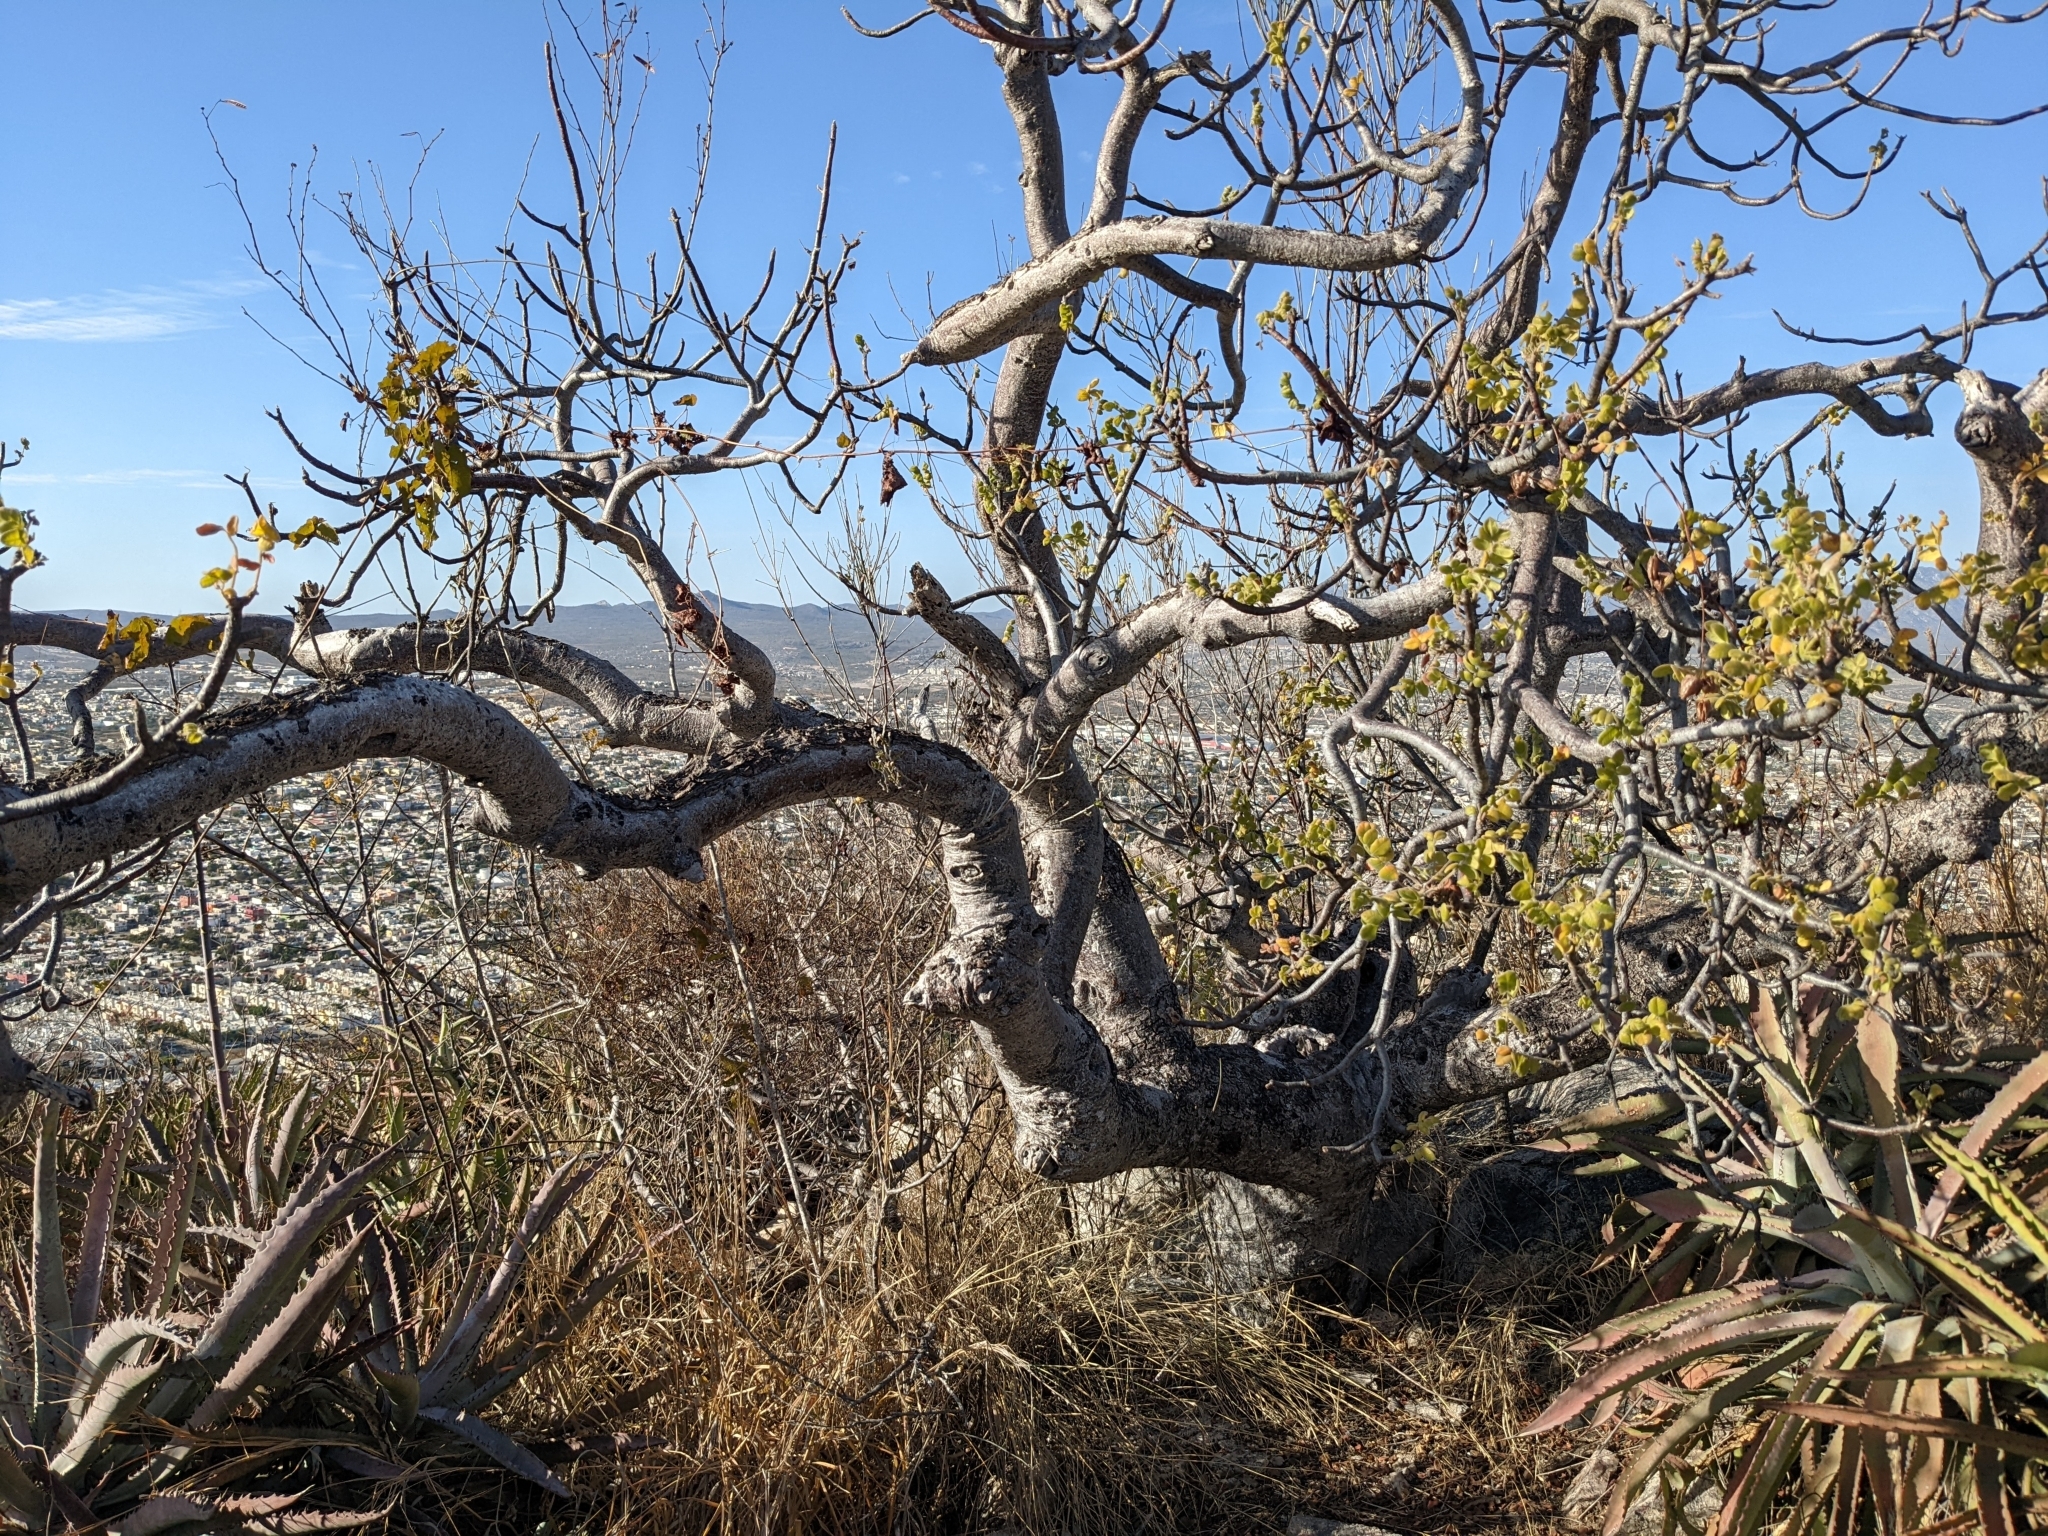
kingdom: Plantae
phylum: Tracheophyta
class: Magnoliopsida
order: Sapindales
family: Anacardiaceae
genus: Cyrtocarpa
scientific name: Cyrtocarpa edulis
